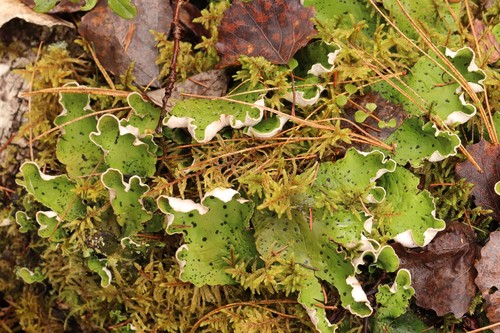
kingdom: Fungi
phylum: Ascomycota
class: Lecanoromycetes
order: Peltigerales
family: Peltigeraceae
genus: Peltigera
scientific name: Peltigera aphthosa
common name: Common freckle pelt lichen
